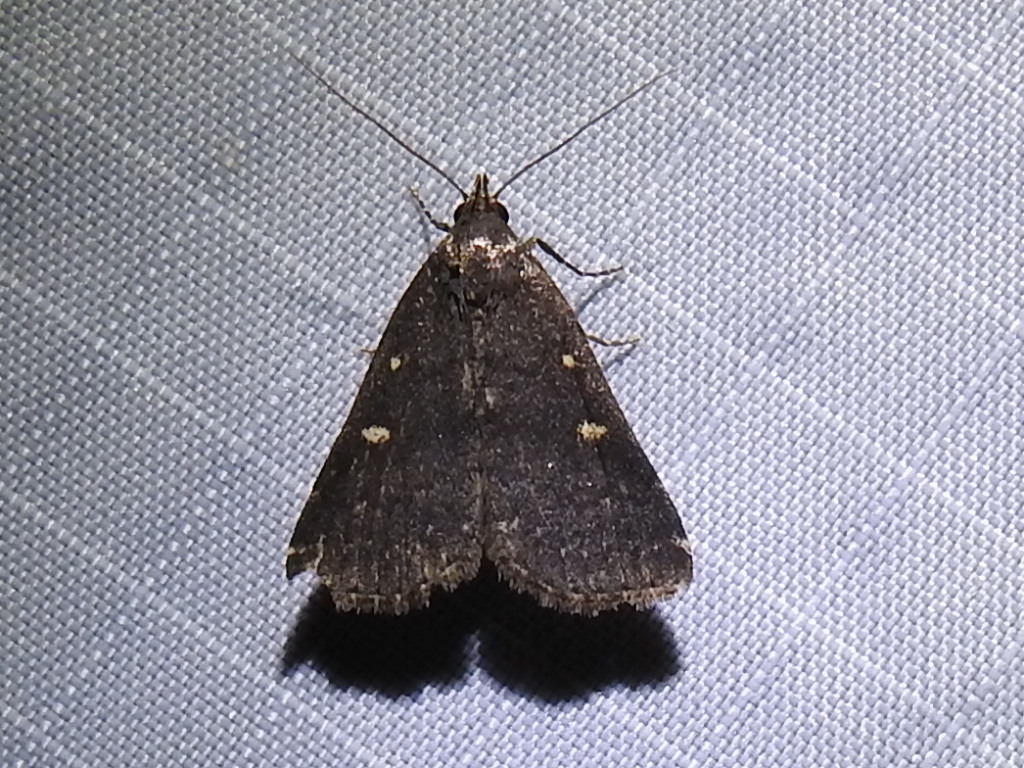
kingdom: Animalia
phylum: Arthropoda
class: Insecta
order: Lepidoptera
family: Erebidae
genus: Tetanolita
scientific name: Tetanolita mynesalis
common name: Smoky tetanolita moth
